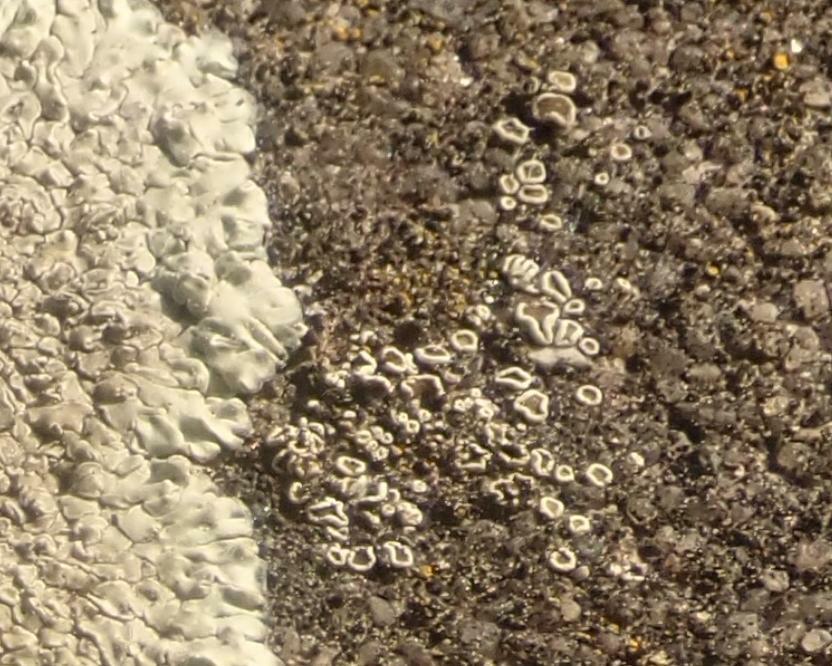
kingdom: Fungi
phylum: Ascomycota
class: Lecanoromycetes
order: Lecanorales
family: Lecanoraceae
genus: Polyozosia
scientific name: Polyozosia dispersa
